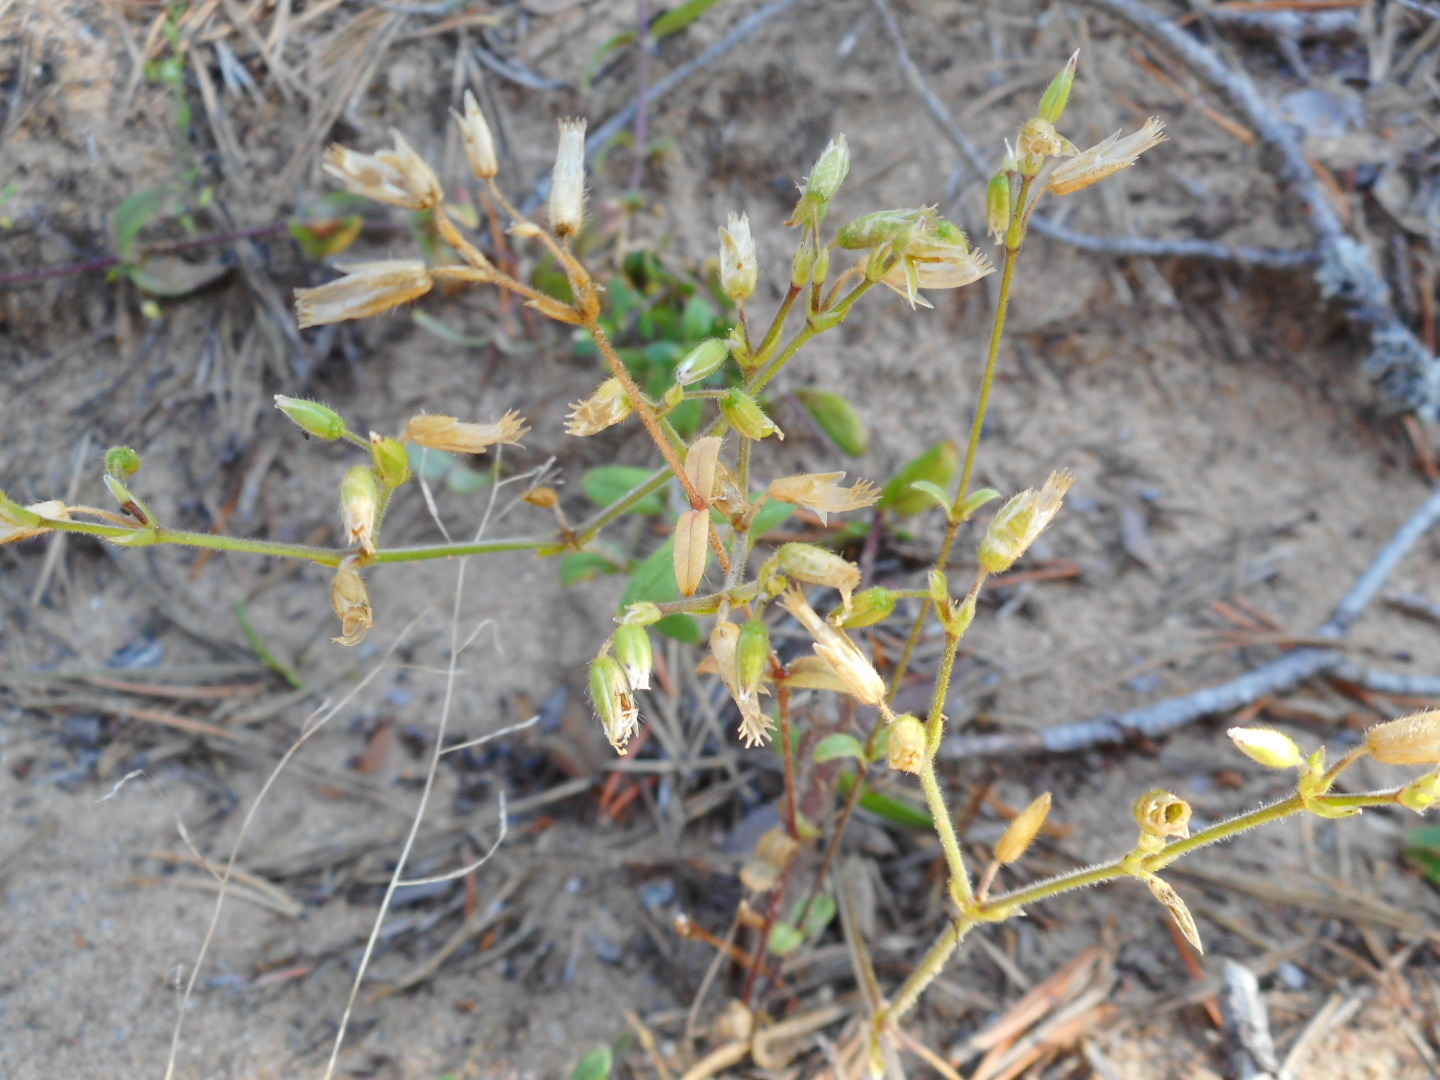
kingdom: Plantae
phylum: Tracheophyta
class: Magnoliopsida
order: Caryophyllales
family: Caryophyllaceae
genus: Cerastium
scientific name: Cerastium holosteoides
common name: Big chickweed
